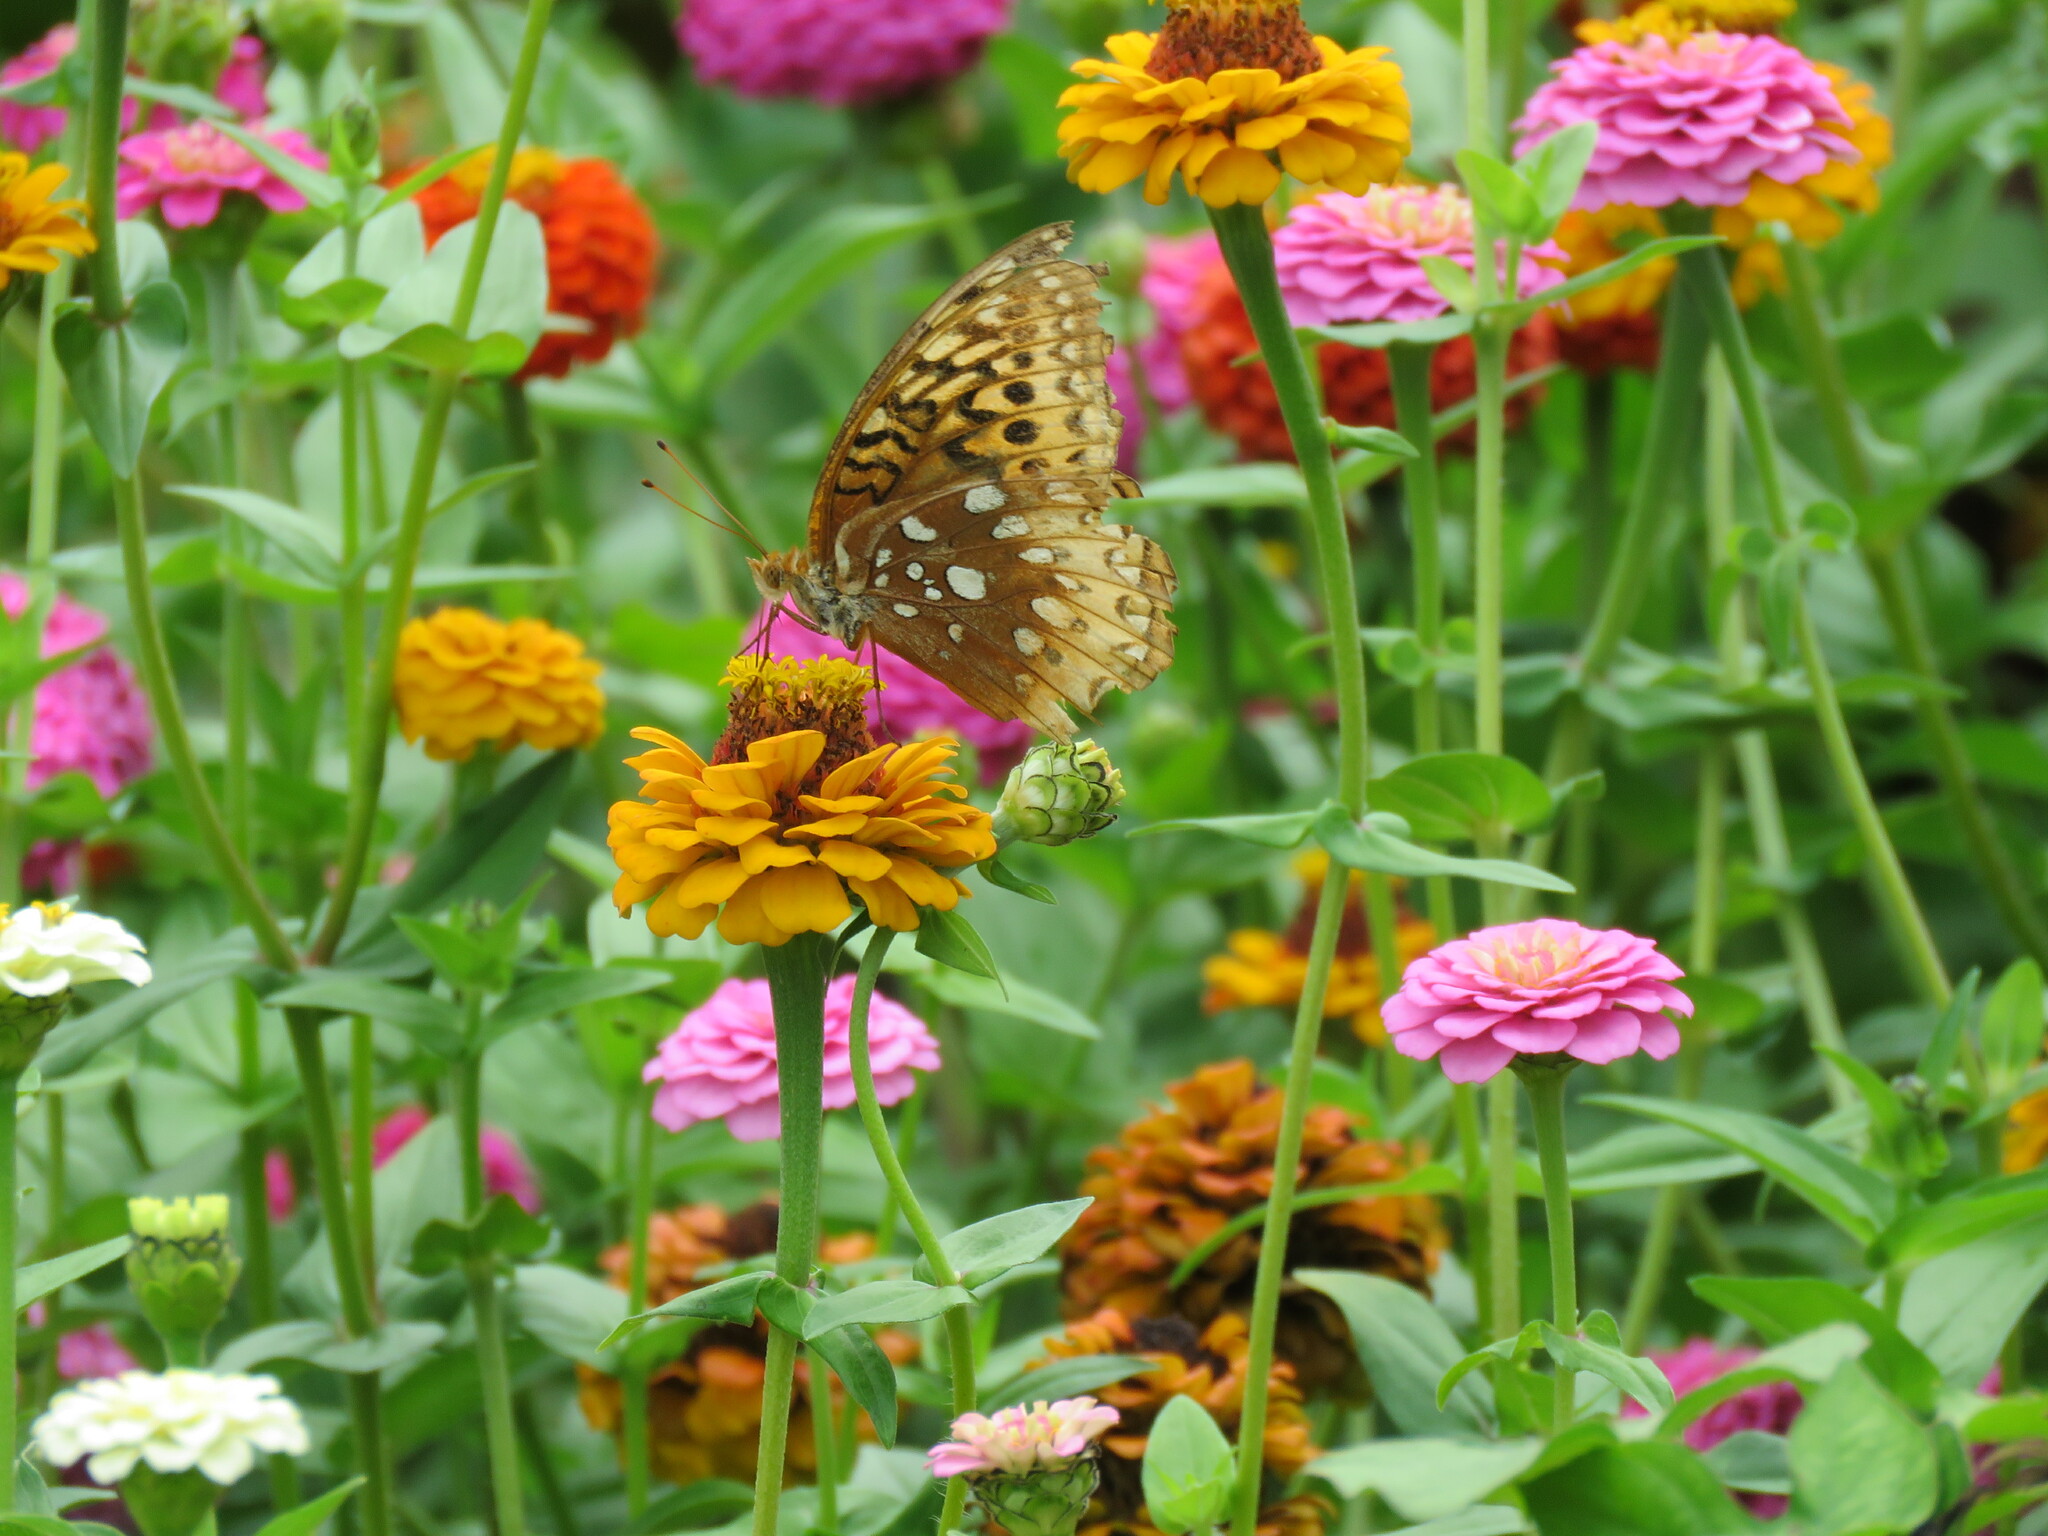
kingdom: Animalia
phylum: Arthropoda
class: Insecta
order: Lepidoptera
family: Nymphalidae
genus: Speyeria
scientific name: Speyeria cybele
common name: Great spangled fritillary
